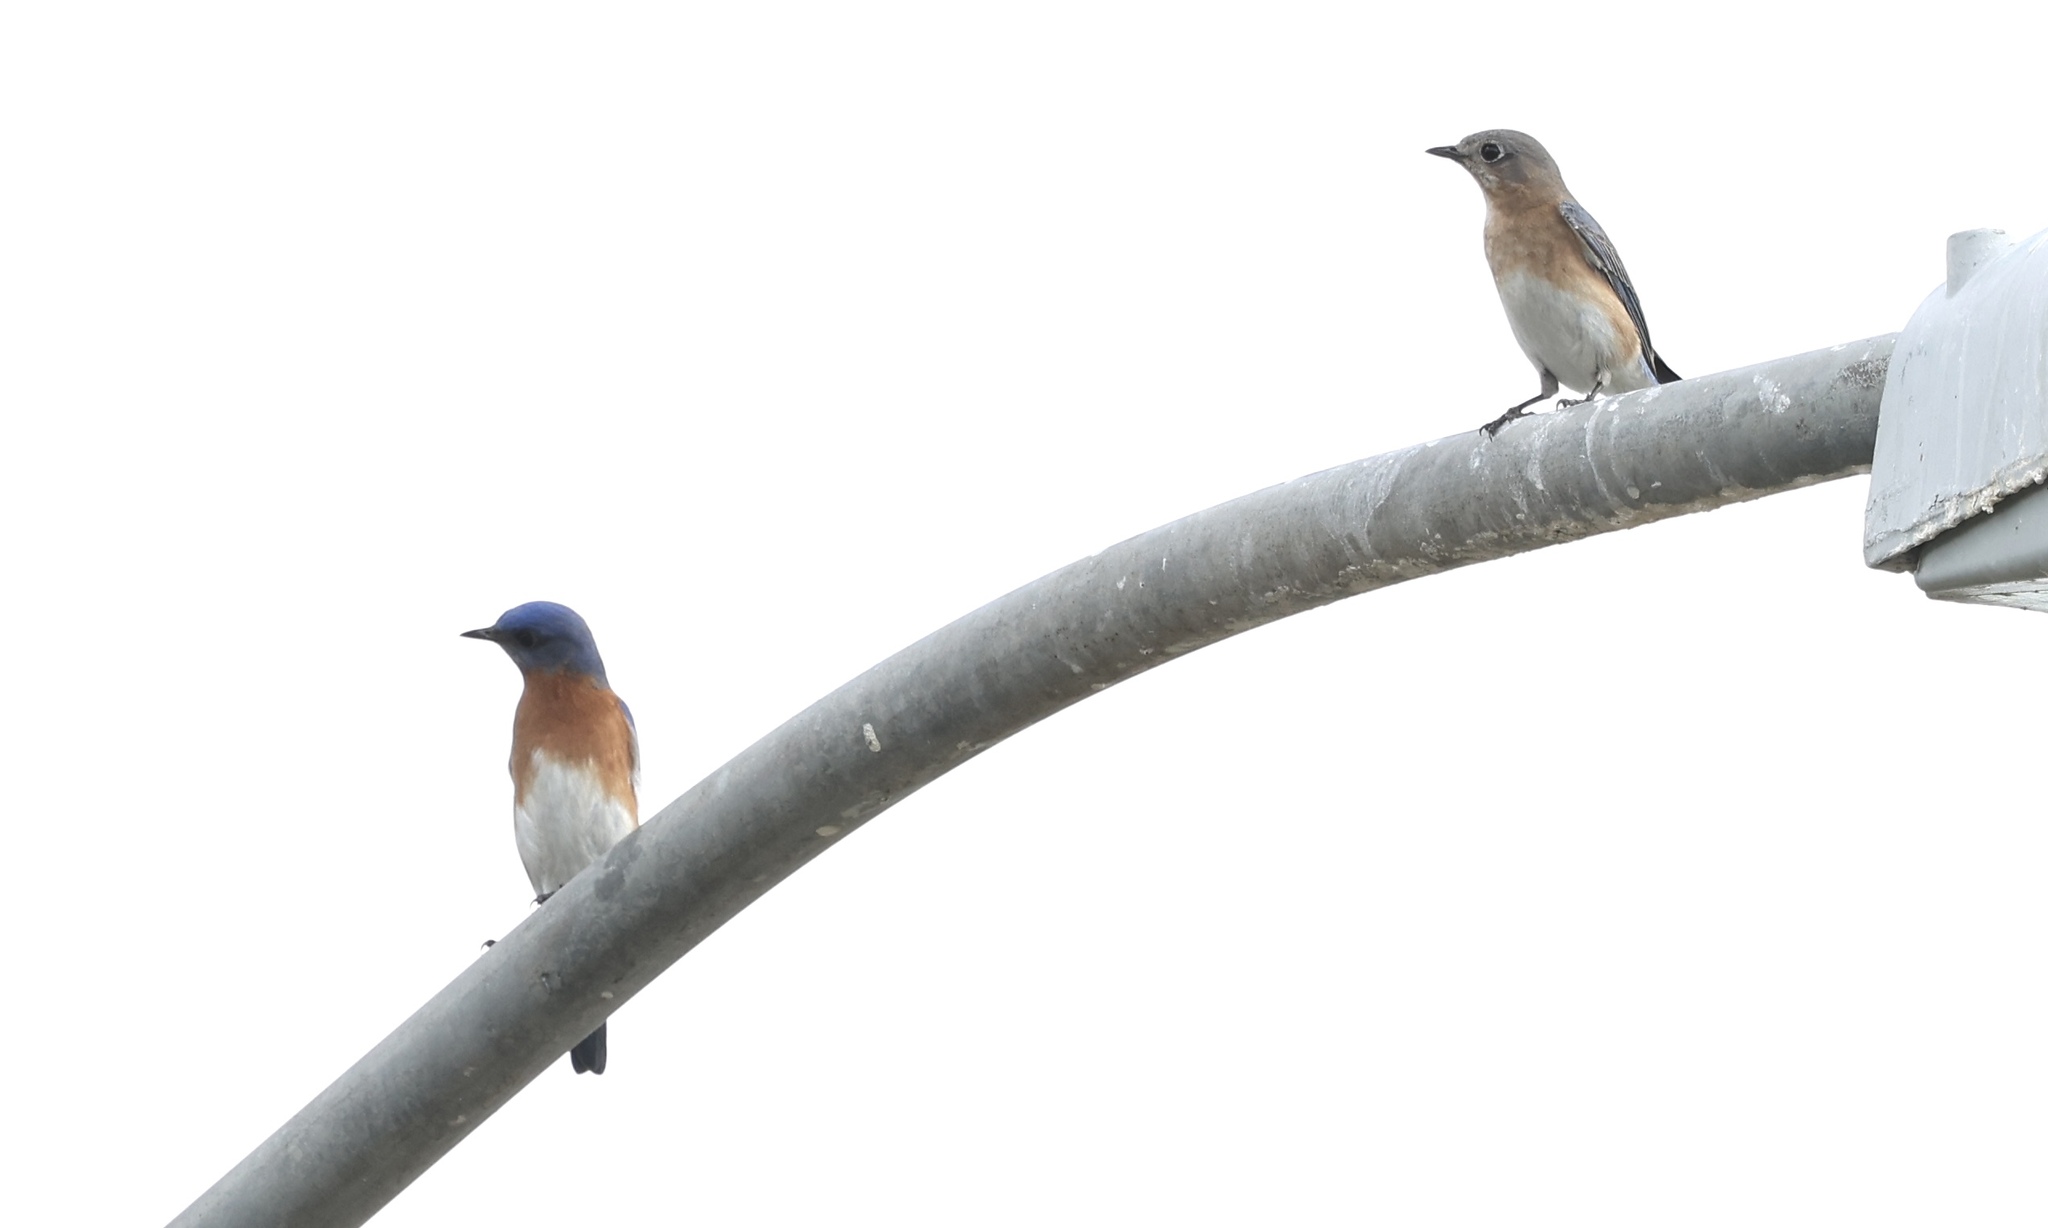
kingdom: Animalia
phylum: Chordata
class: Aves
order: Passeriformes
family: Turdidae
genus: Sialia
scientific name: Sialia sialis
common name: Eastern bluebird
